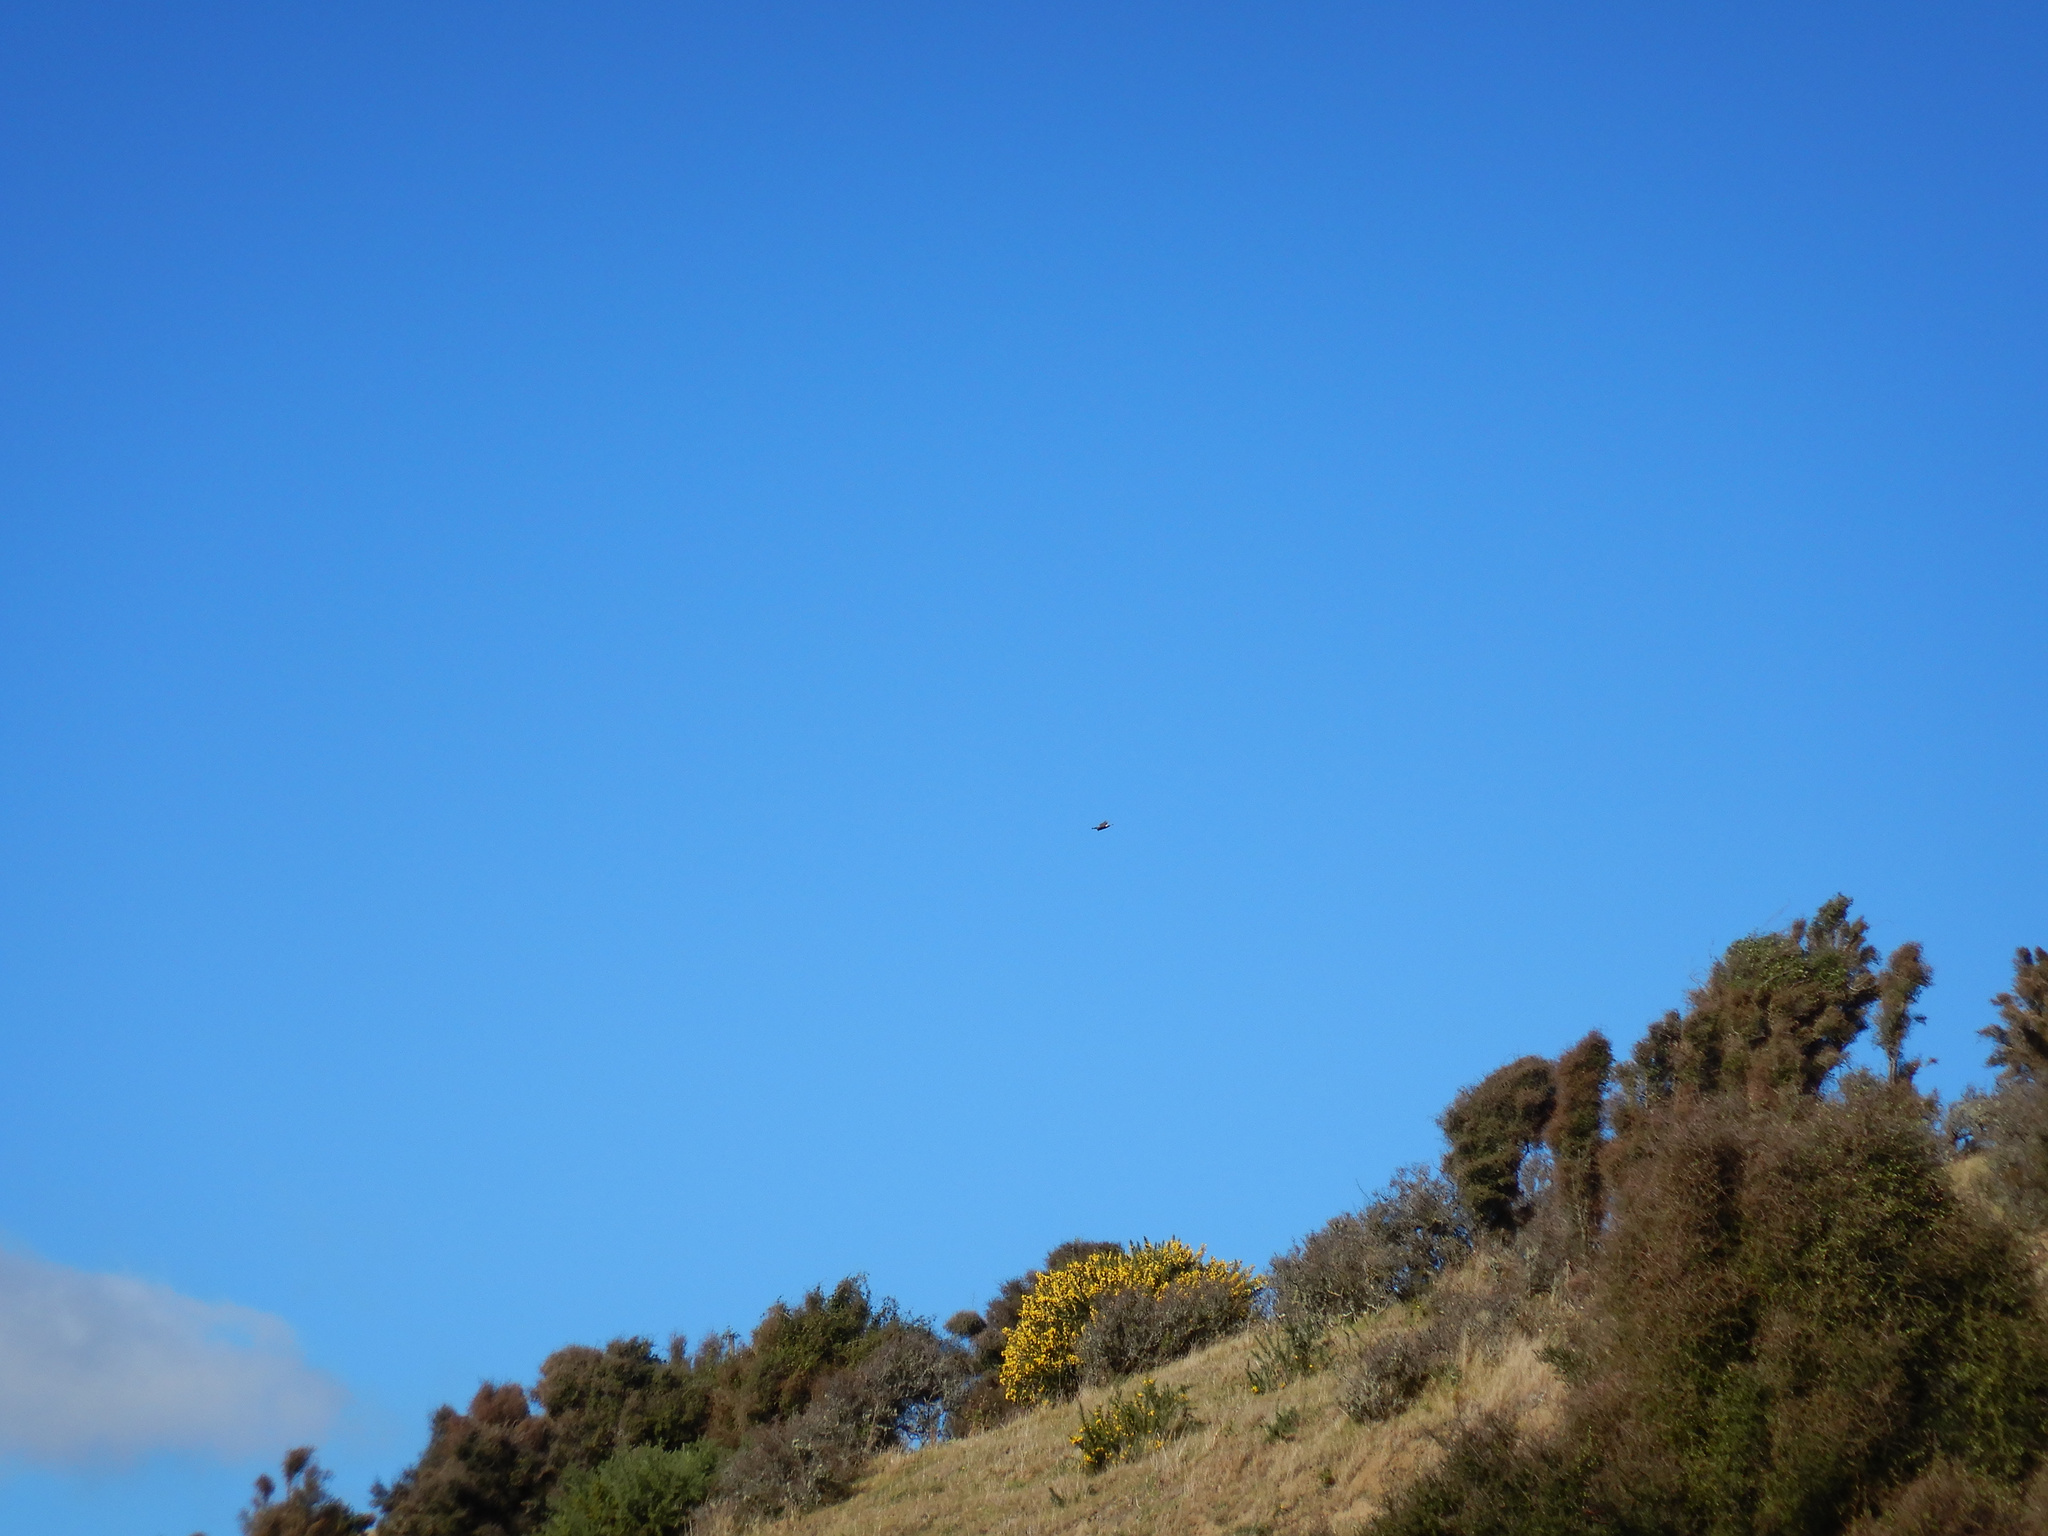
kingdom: Animalia
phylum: Chordata
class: Aves
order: Accipitriformes
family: Accipitridae
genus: Circus
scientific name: Circus approximans
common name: Swamp harrier
